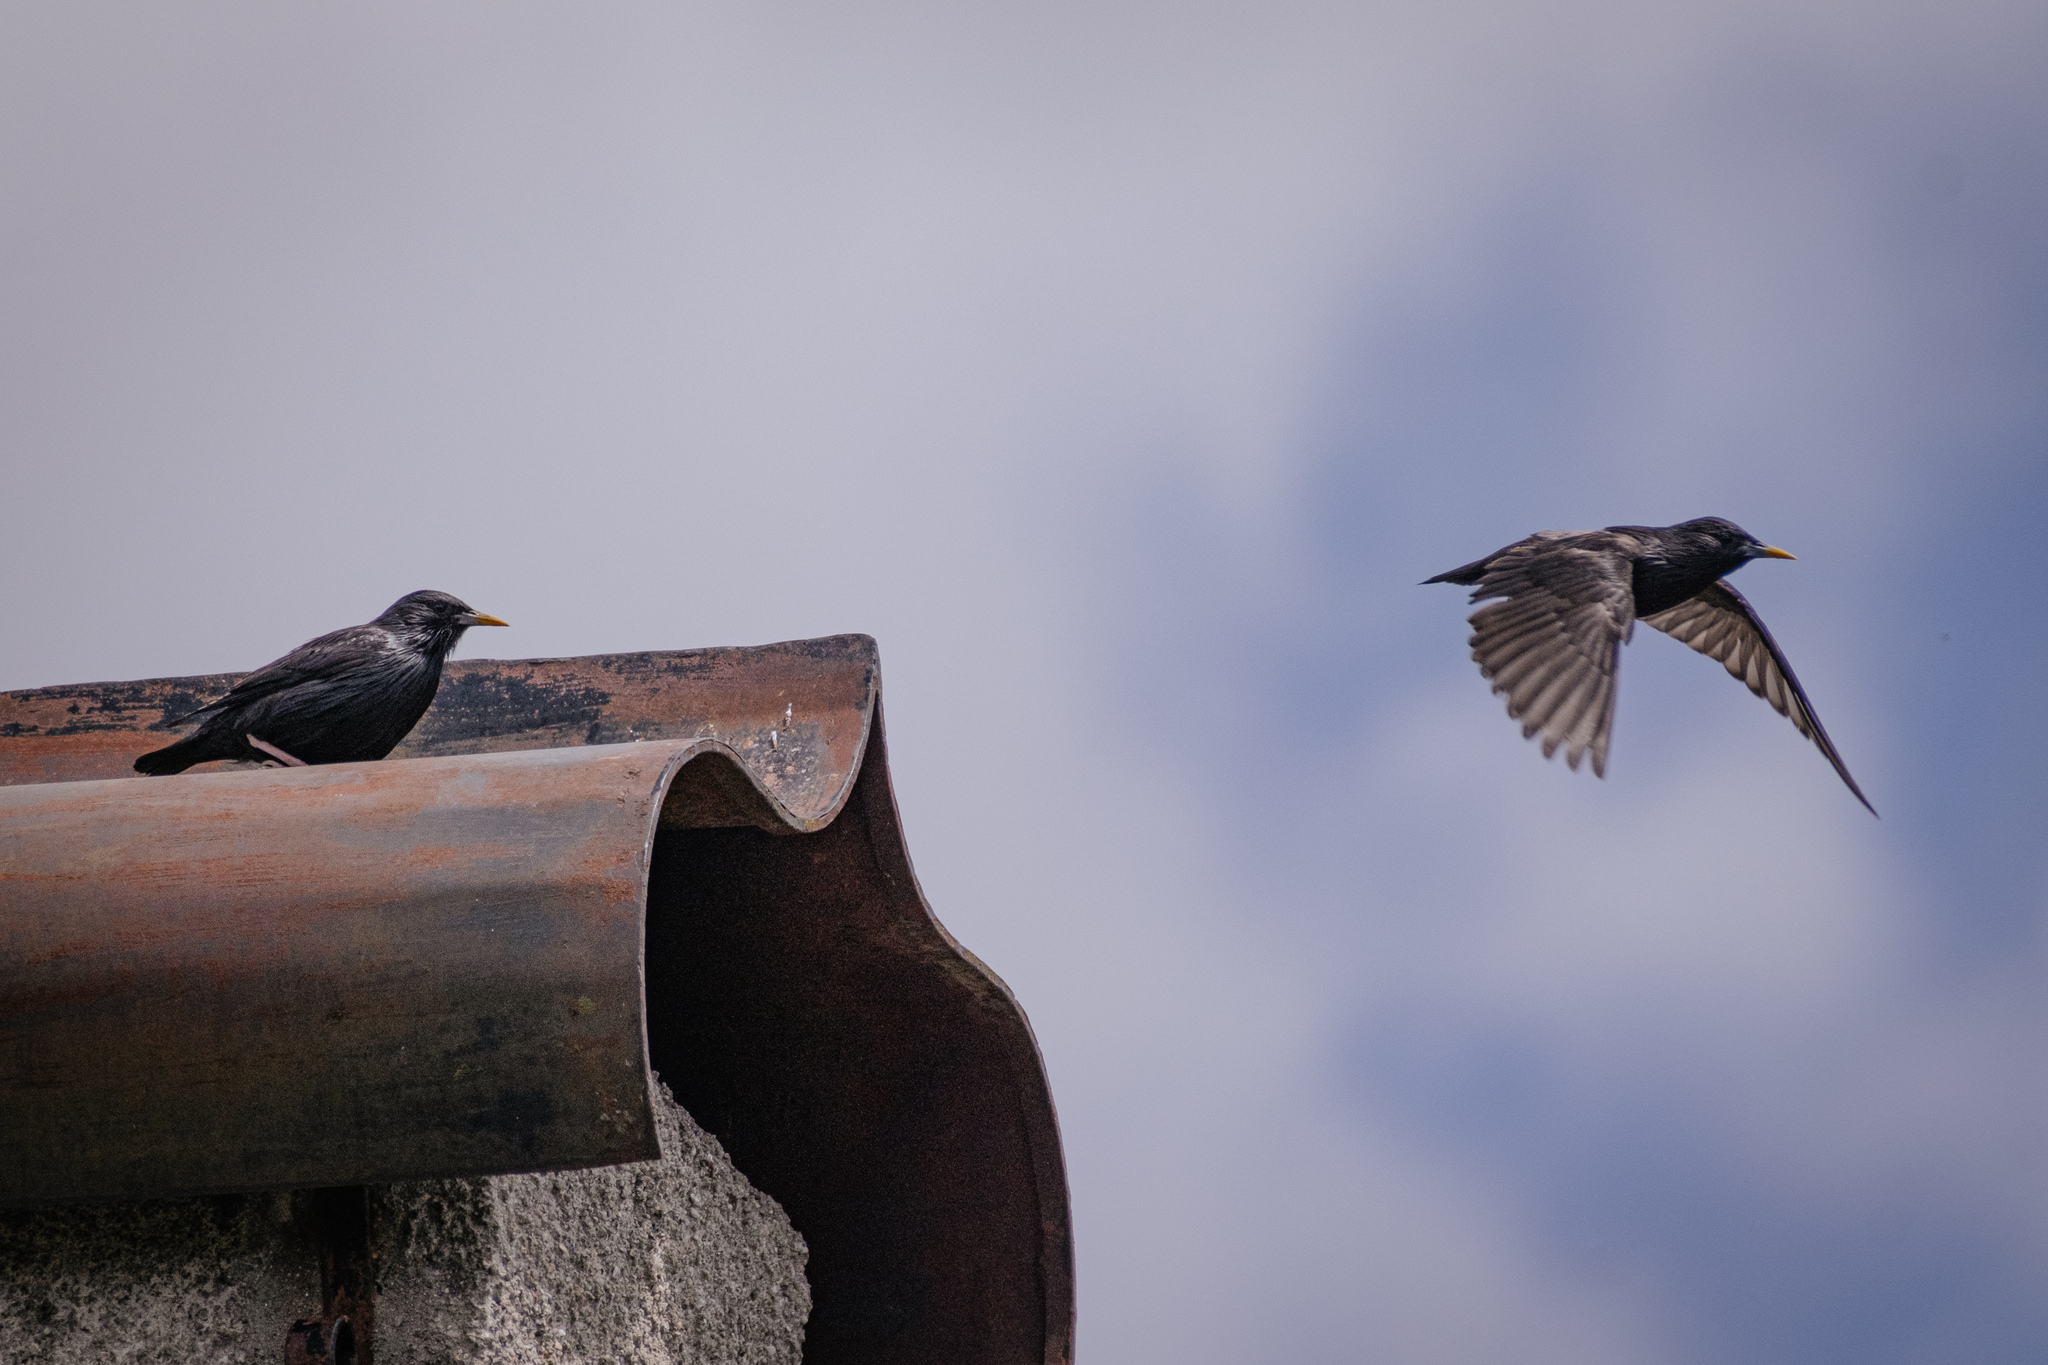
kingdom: Animalia
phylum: Chordata
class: Aves
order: Passeriformes
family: Sturnidae
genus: Sturnus
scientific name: Sturnus unicolor
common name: Spotless starling
